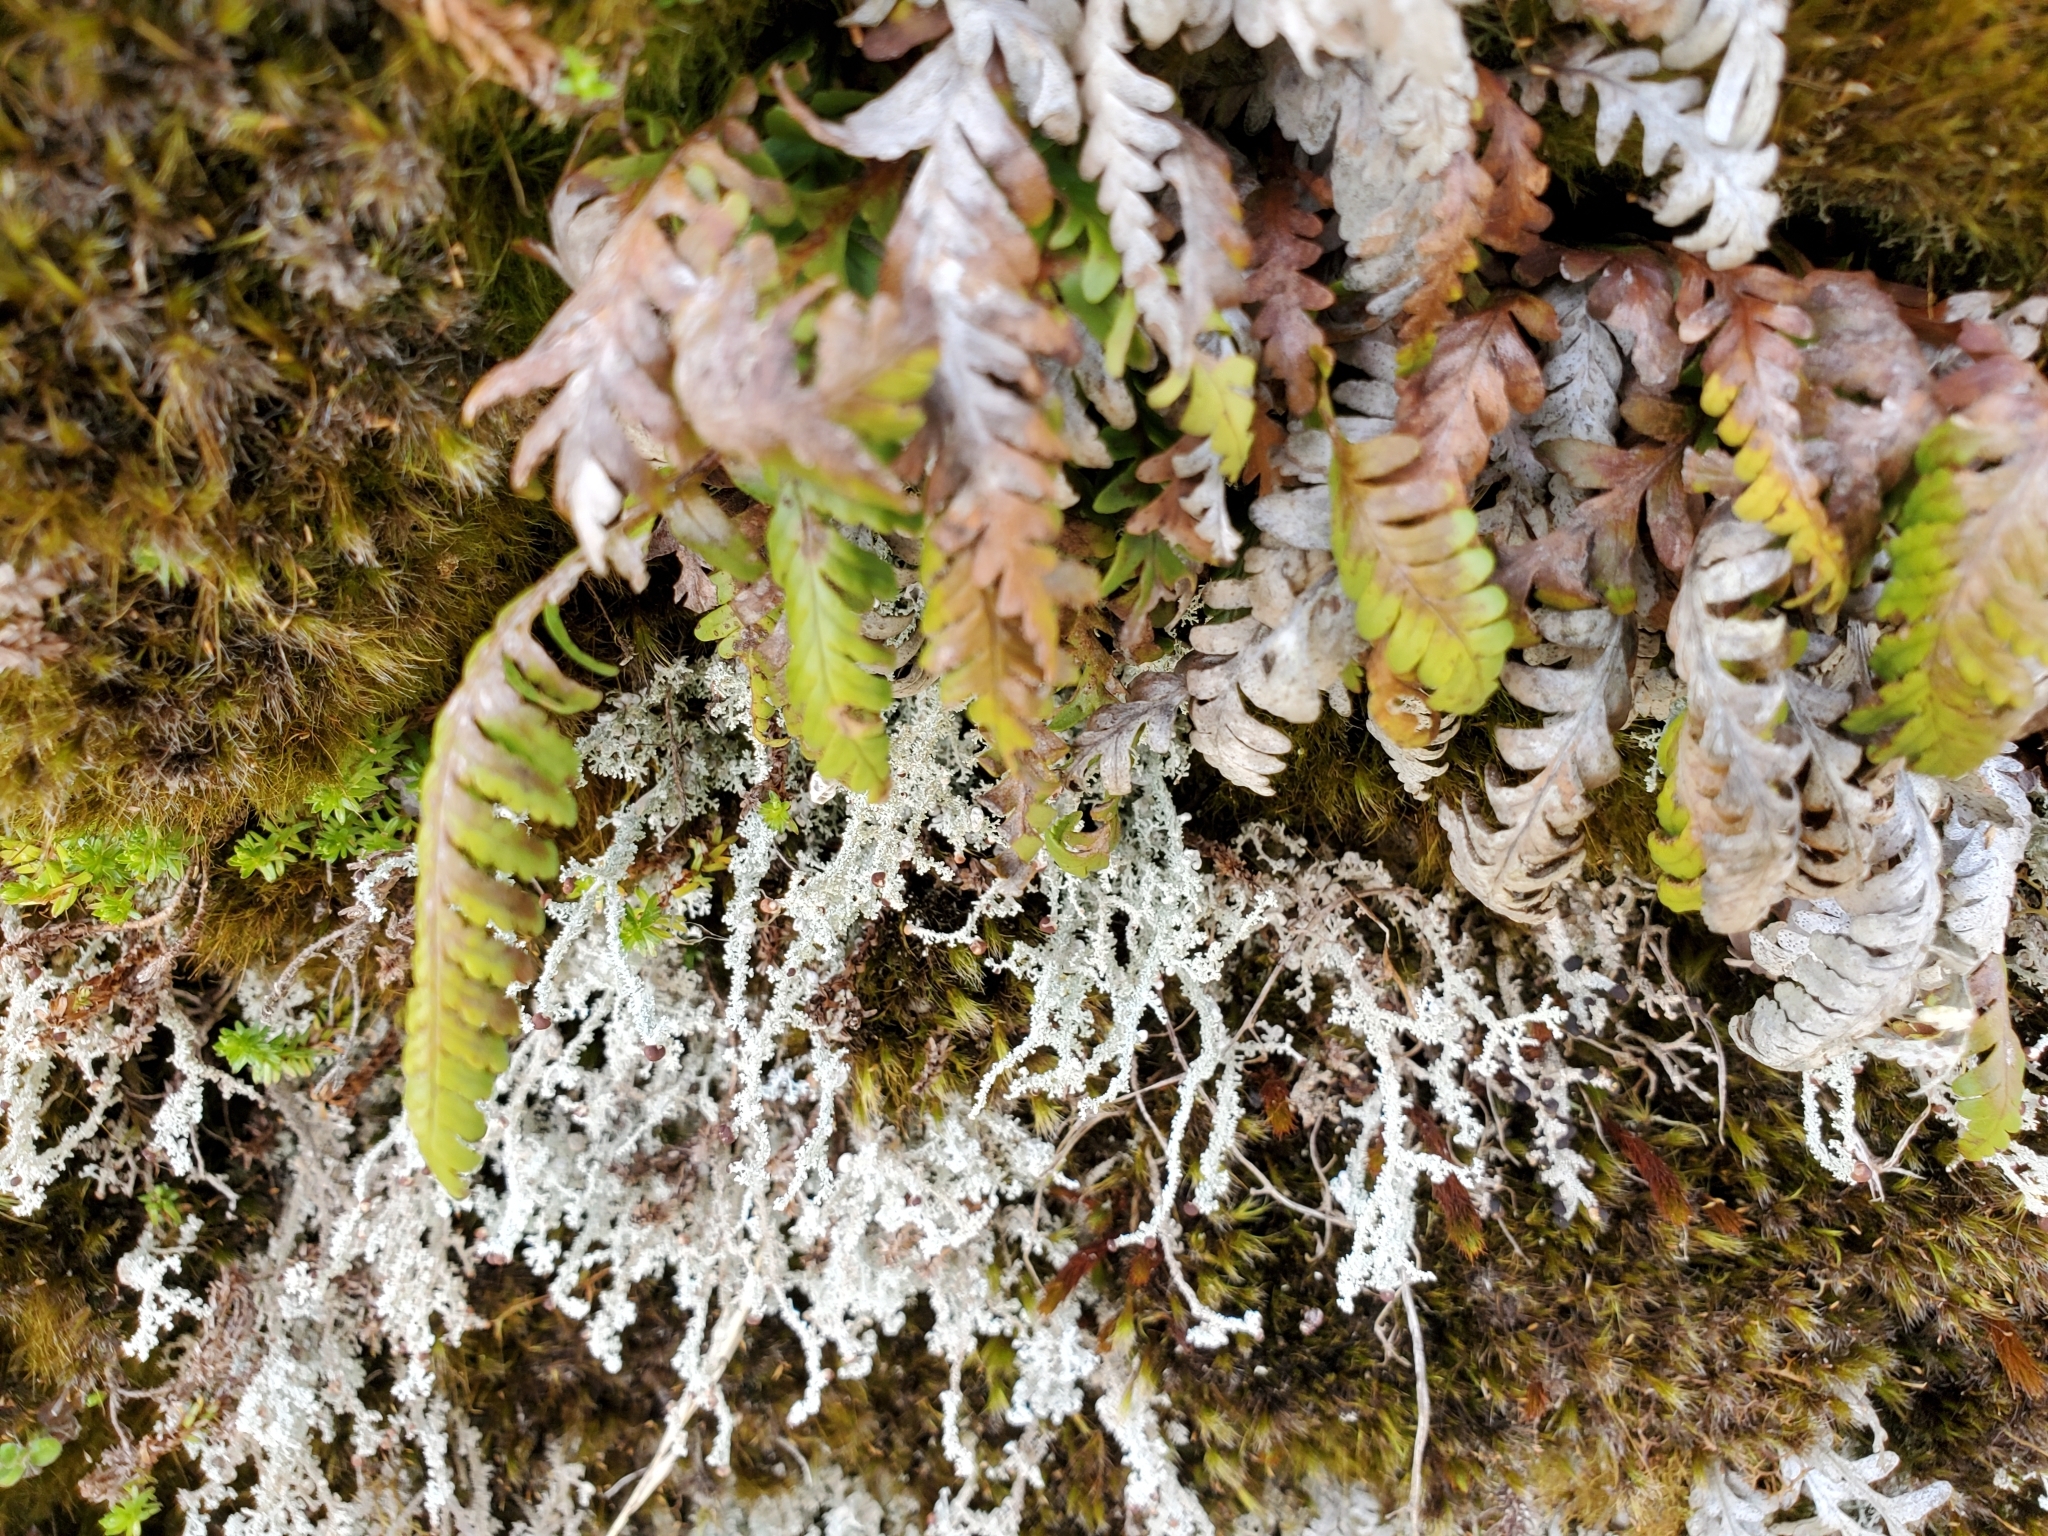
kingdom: Plantae
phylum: Tracheophyta
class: Polypodiopsida
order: Polypodiales
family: Polypodiaceae
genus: Notogrammitis
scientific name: Notogrammitis heterophylla
